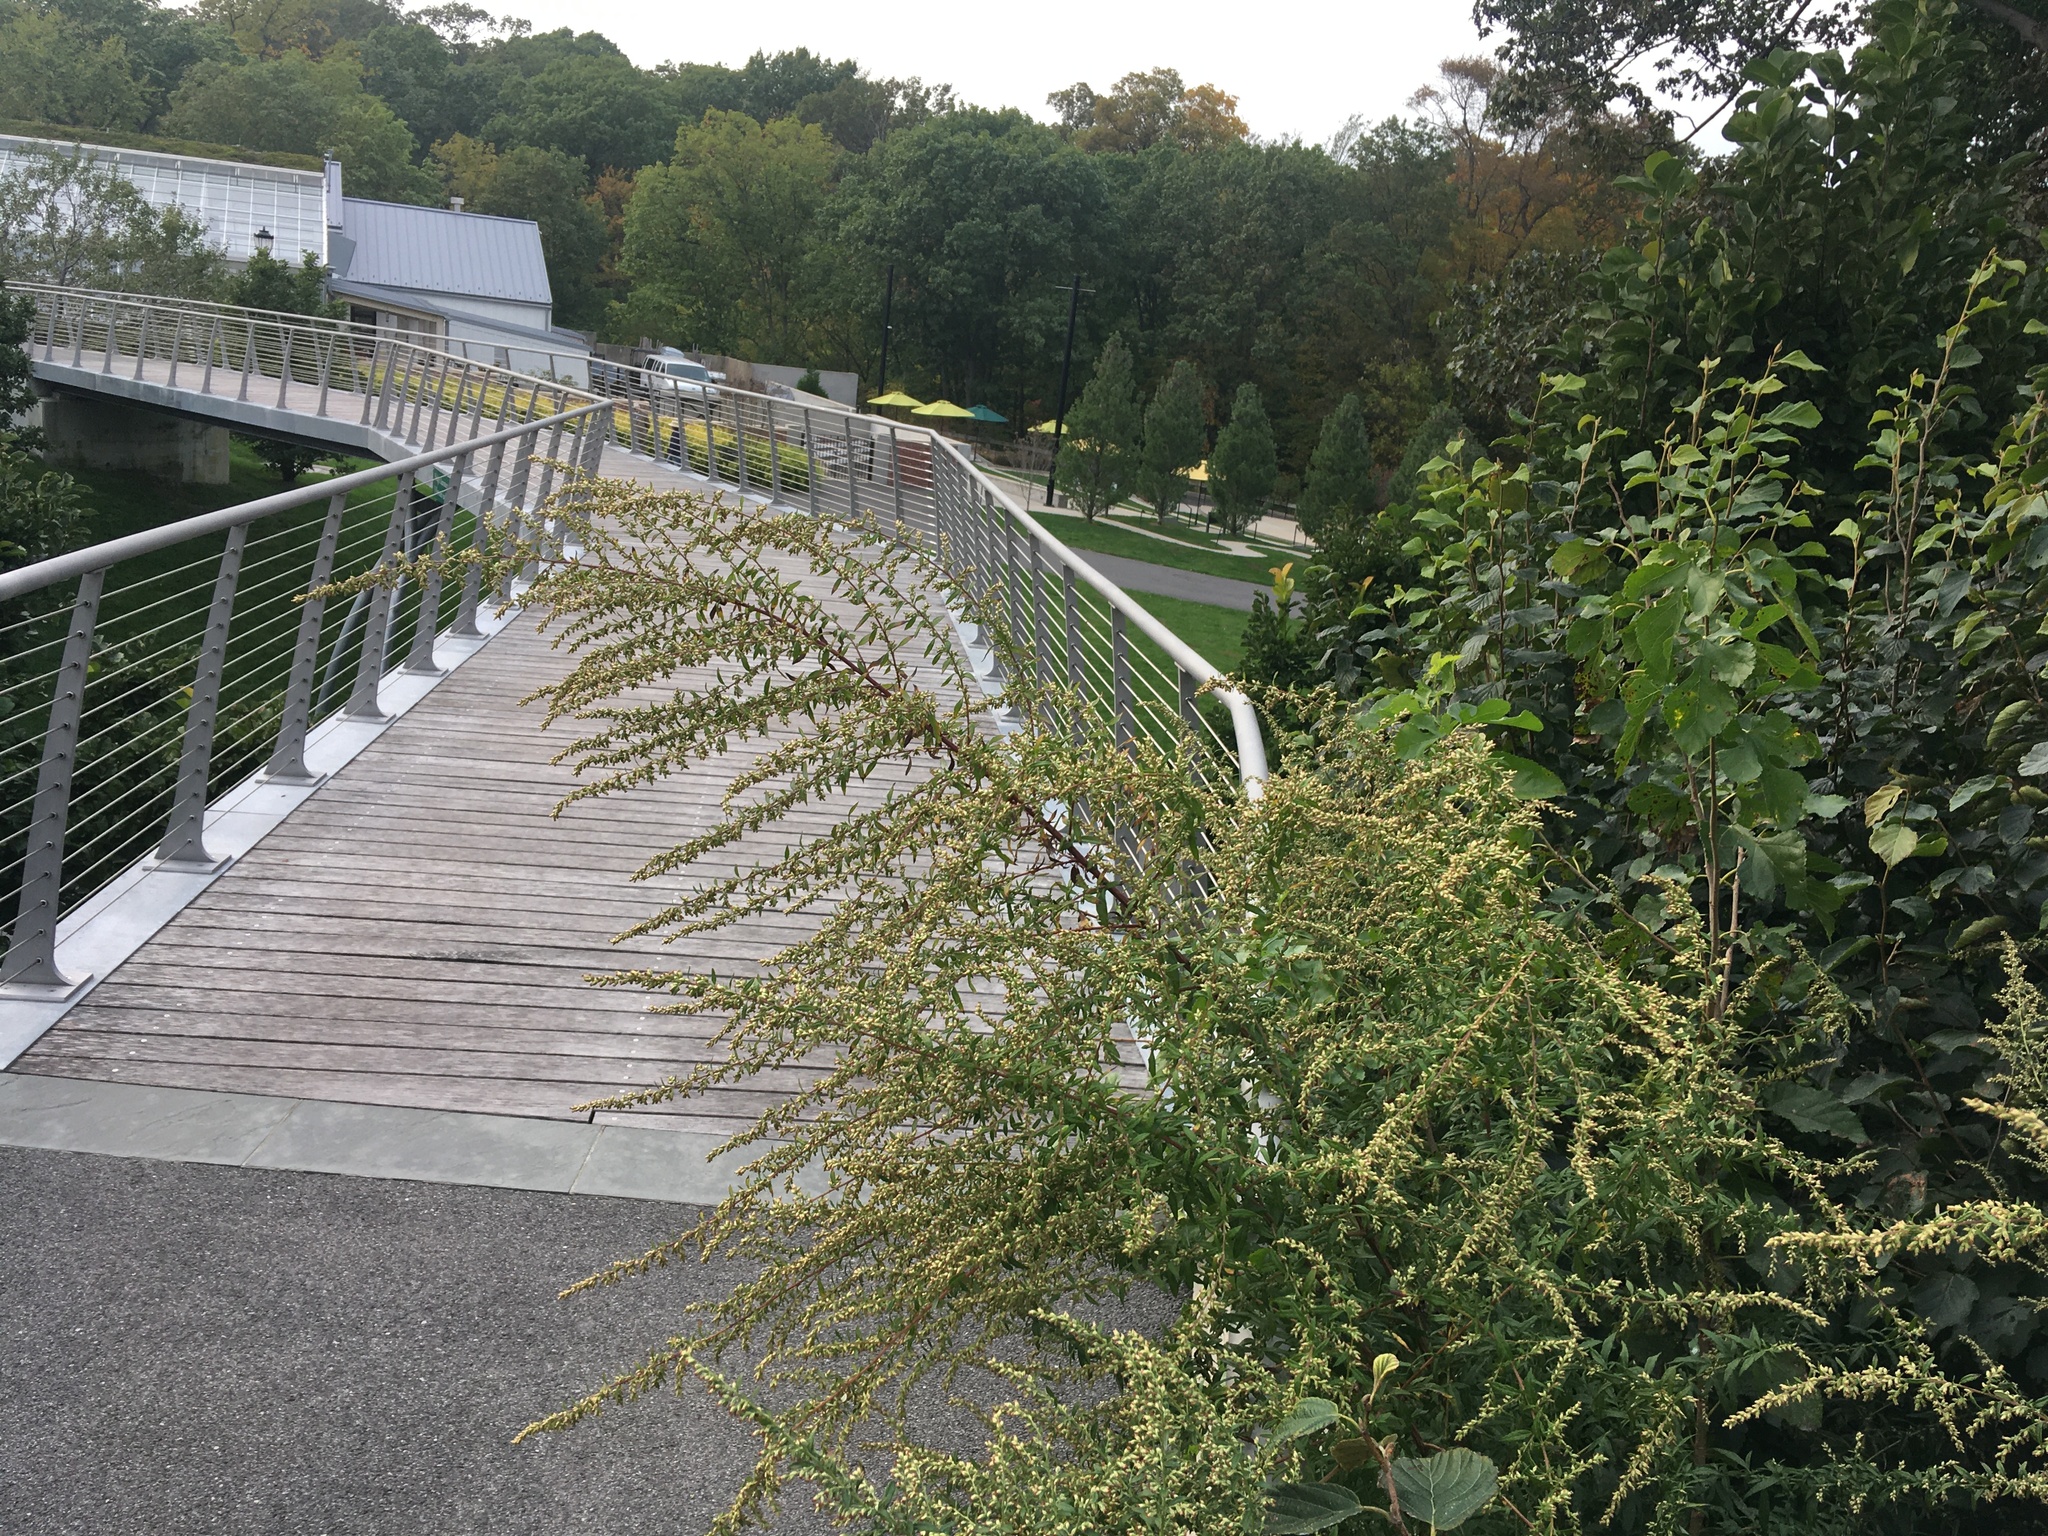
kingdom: Plantae
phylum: Tracheophyta
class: Magnoliopsida
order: Asterales
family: Asteraceae
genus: Artemisia
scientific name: Artemisia vulgaris
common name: Mugwort
